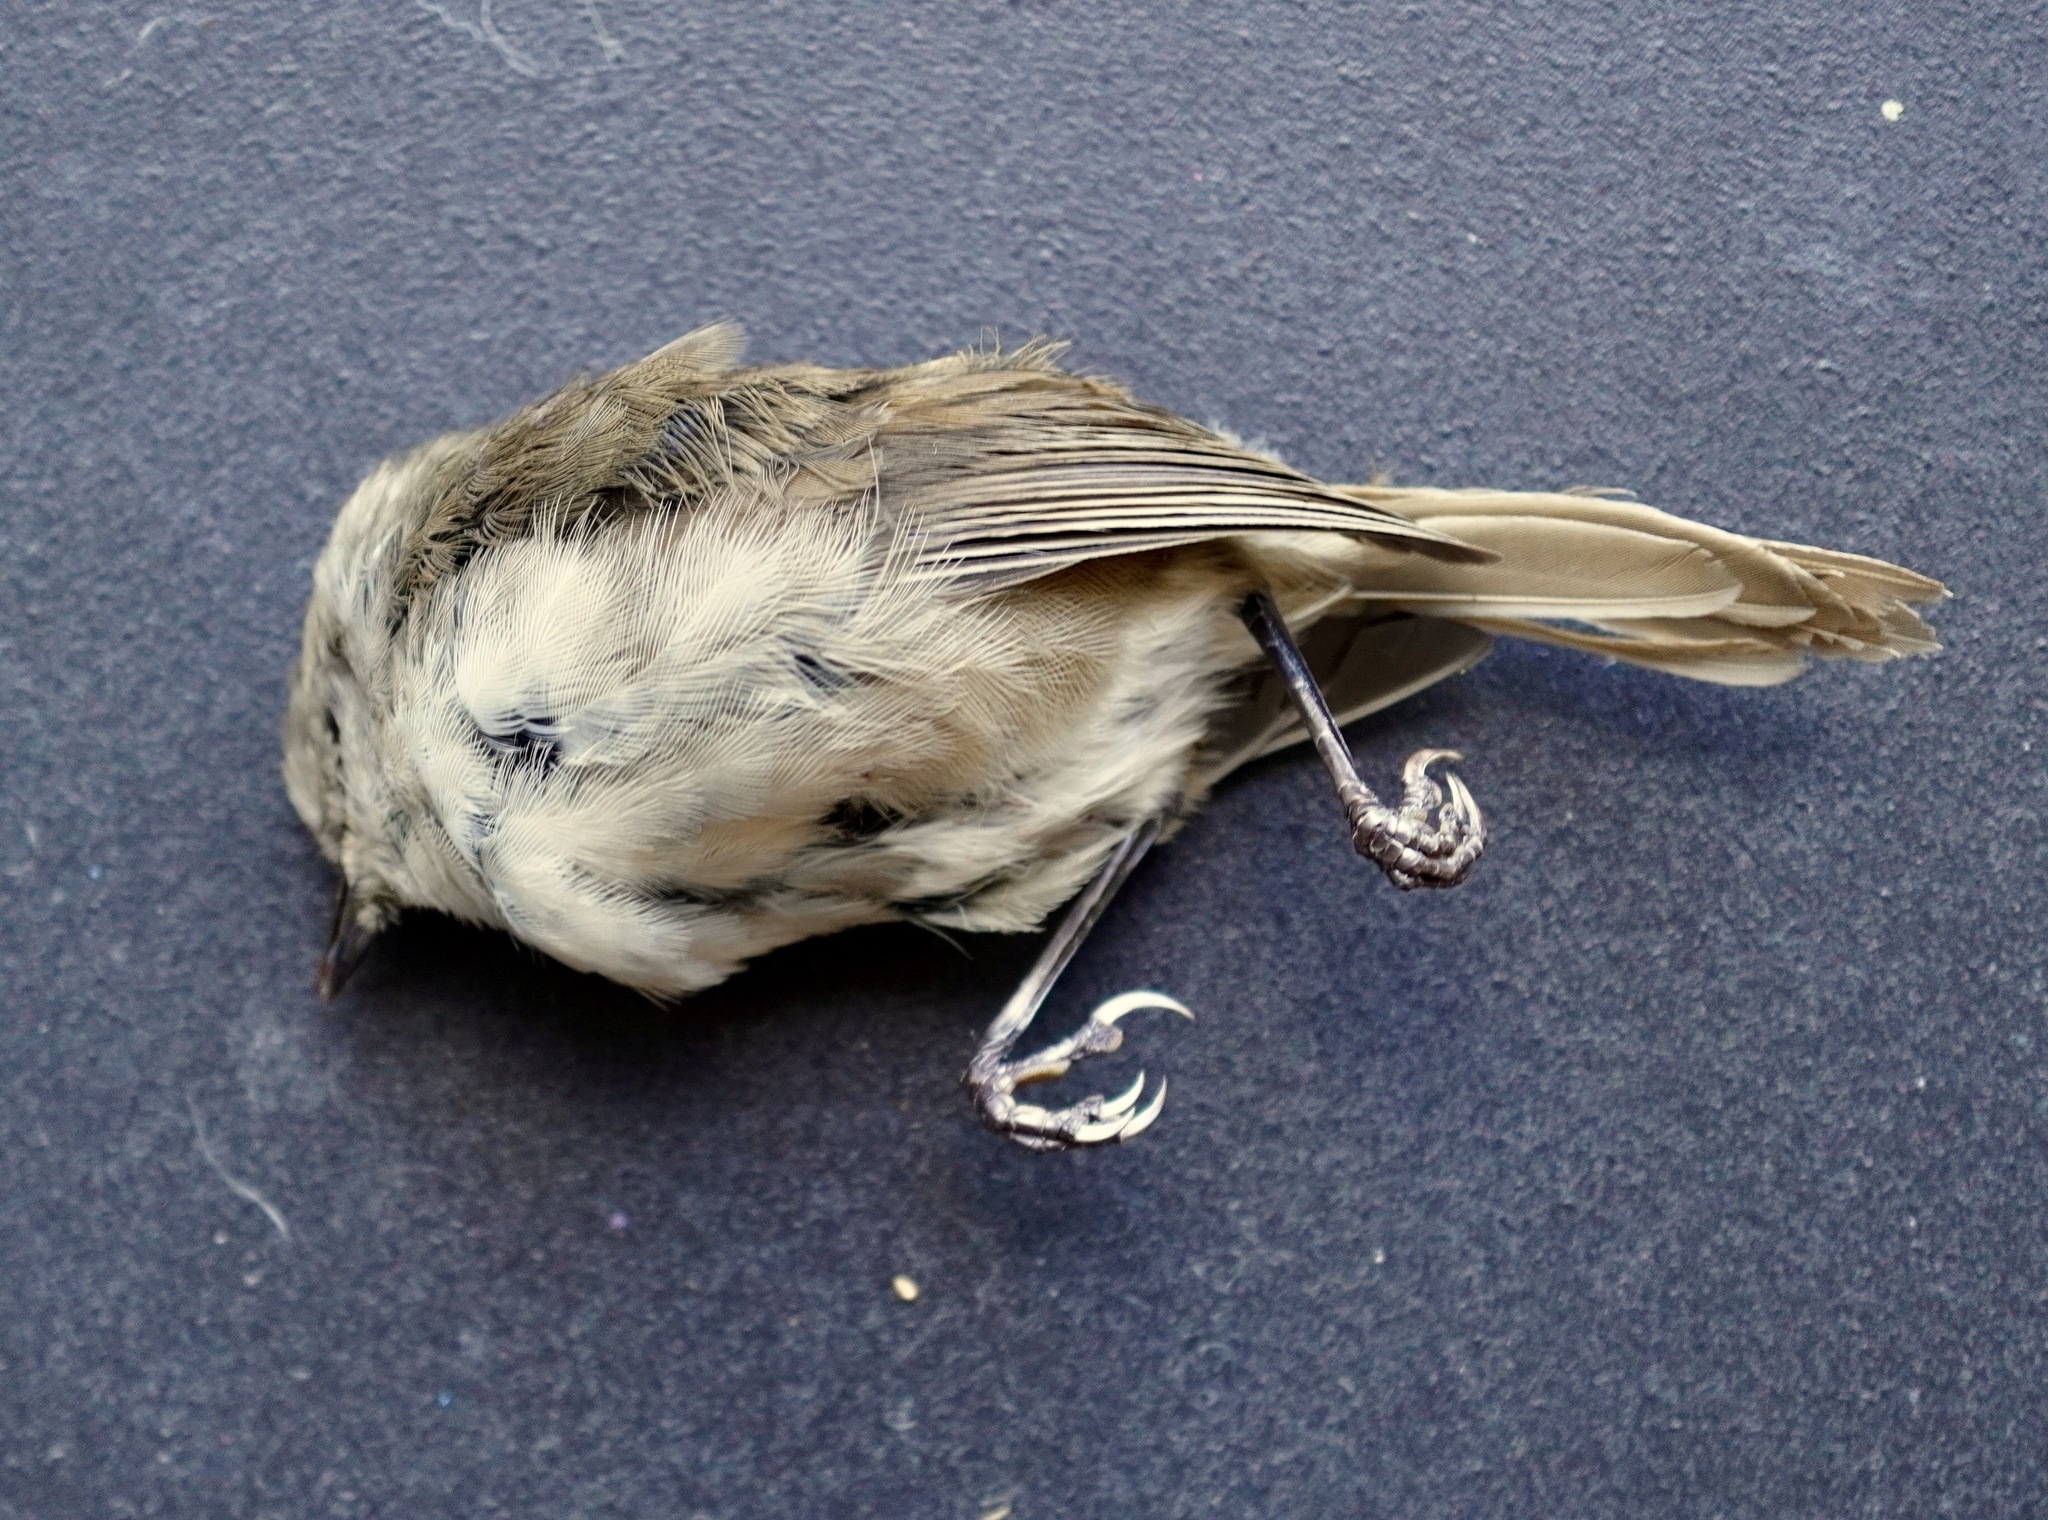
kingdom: Animalia
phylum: Chordata
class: Aves
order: Passeriformes
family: Acanthizidae
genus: Mohoua
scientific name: Mohoua albicilla
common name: Whitehead
